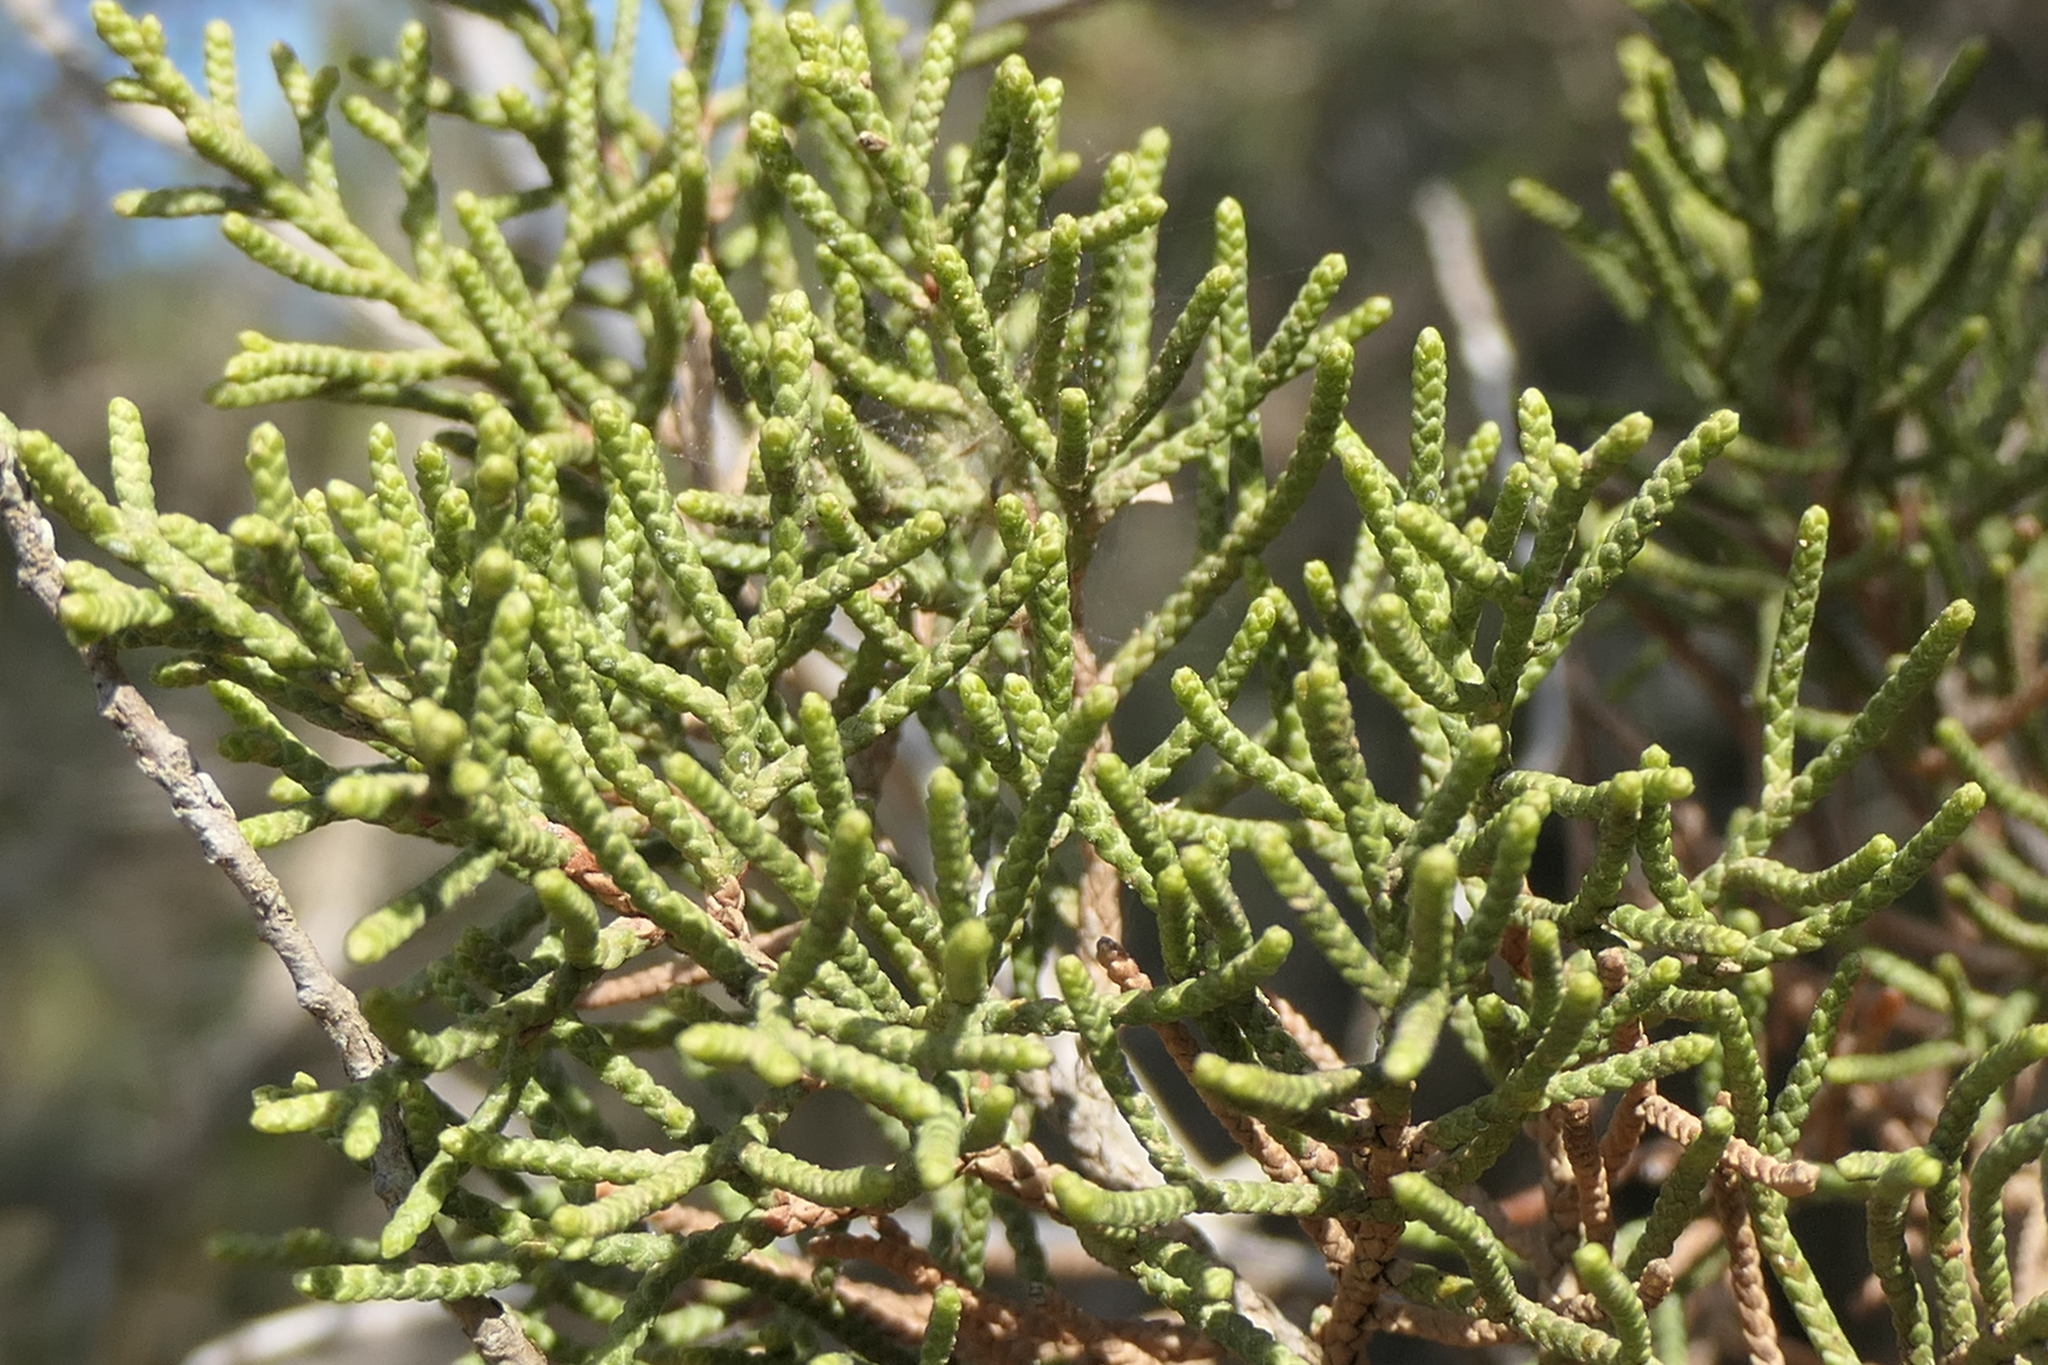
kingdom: Plantae
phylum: Tracheophyta
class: Pinopsida
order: Pinales
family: Cupressaceae
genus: Juniperus
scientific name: Juniperus phoenicea
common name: Phoenician juniper
